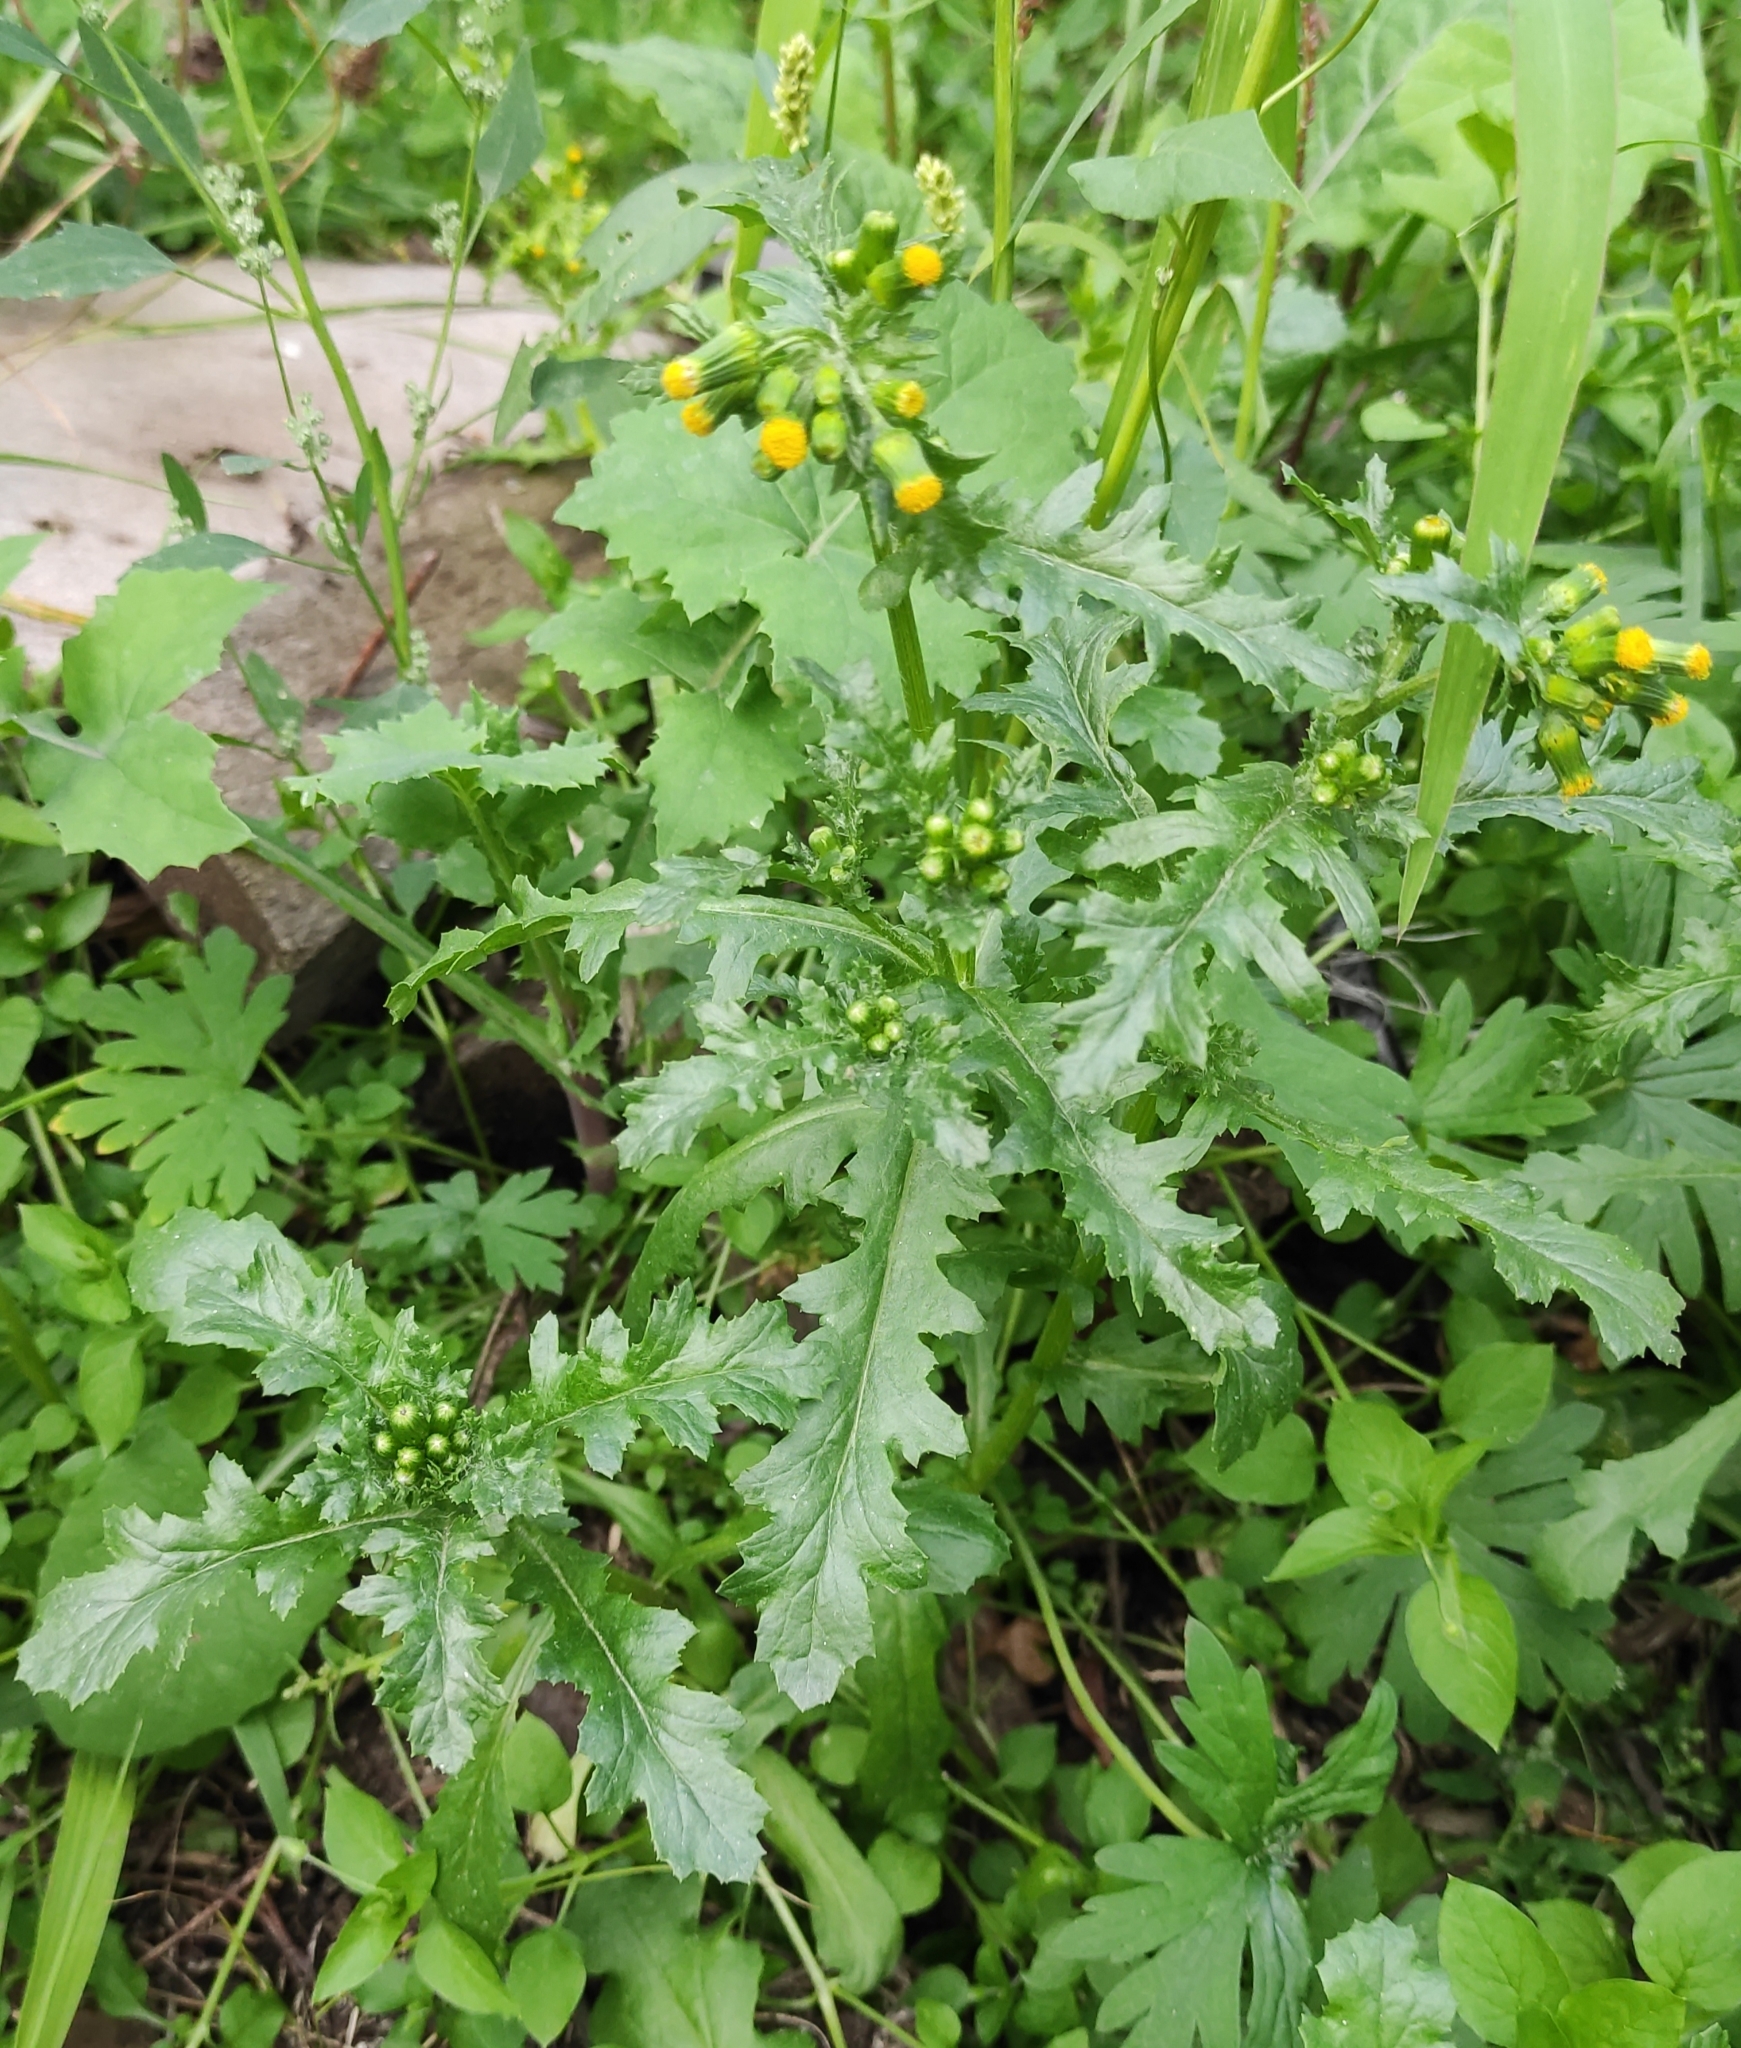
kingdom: Plantae
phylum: Tracheophyta
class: Magnoliopsida
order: Asterales
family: Asteraceae
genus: Senecio
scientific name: Senecio vulgaris
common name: Old-man-in-the-spring
